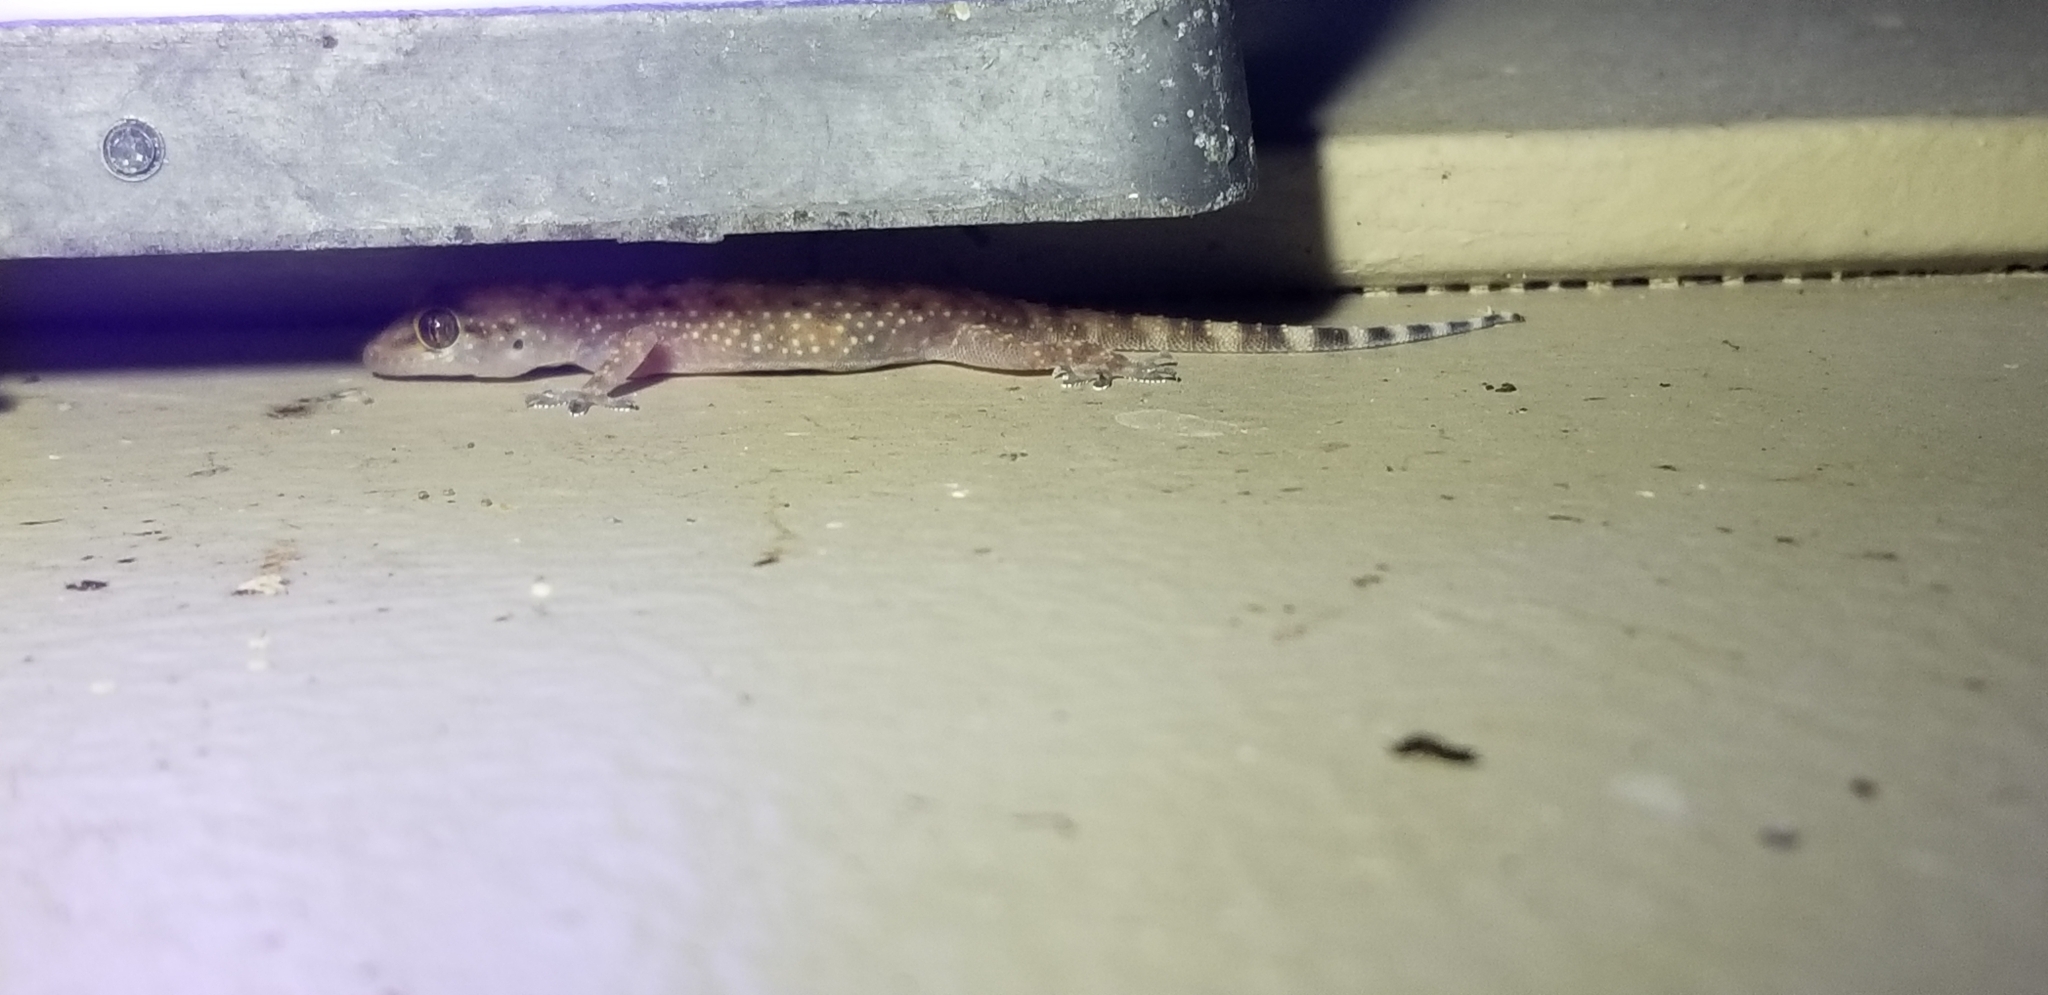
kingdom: Animalia
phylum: Chordata
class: Squamata
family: Gekkonidae
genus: Hemidactylus
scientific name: Hemidactylus turcicus
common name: Turkish gecko
